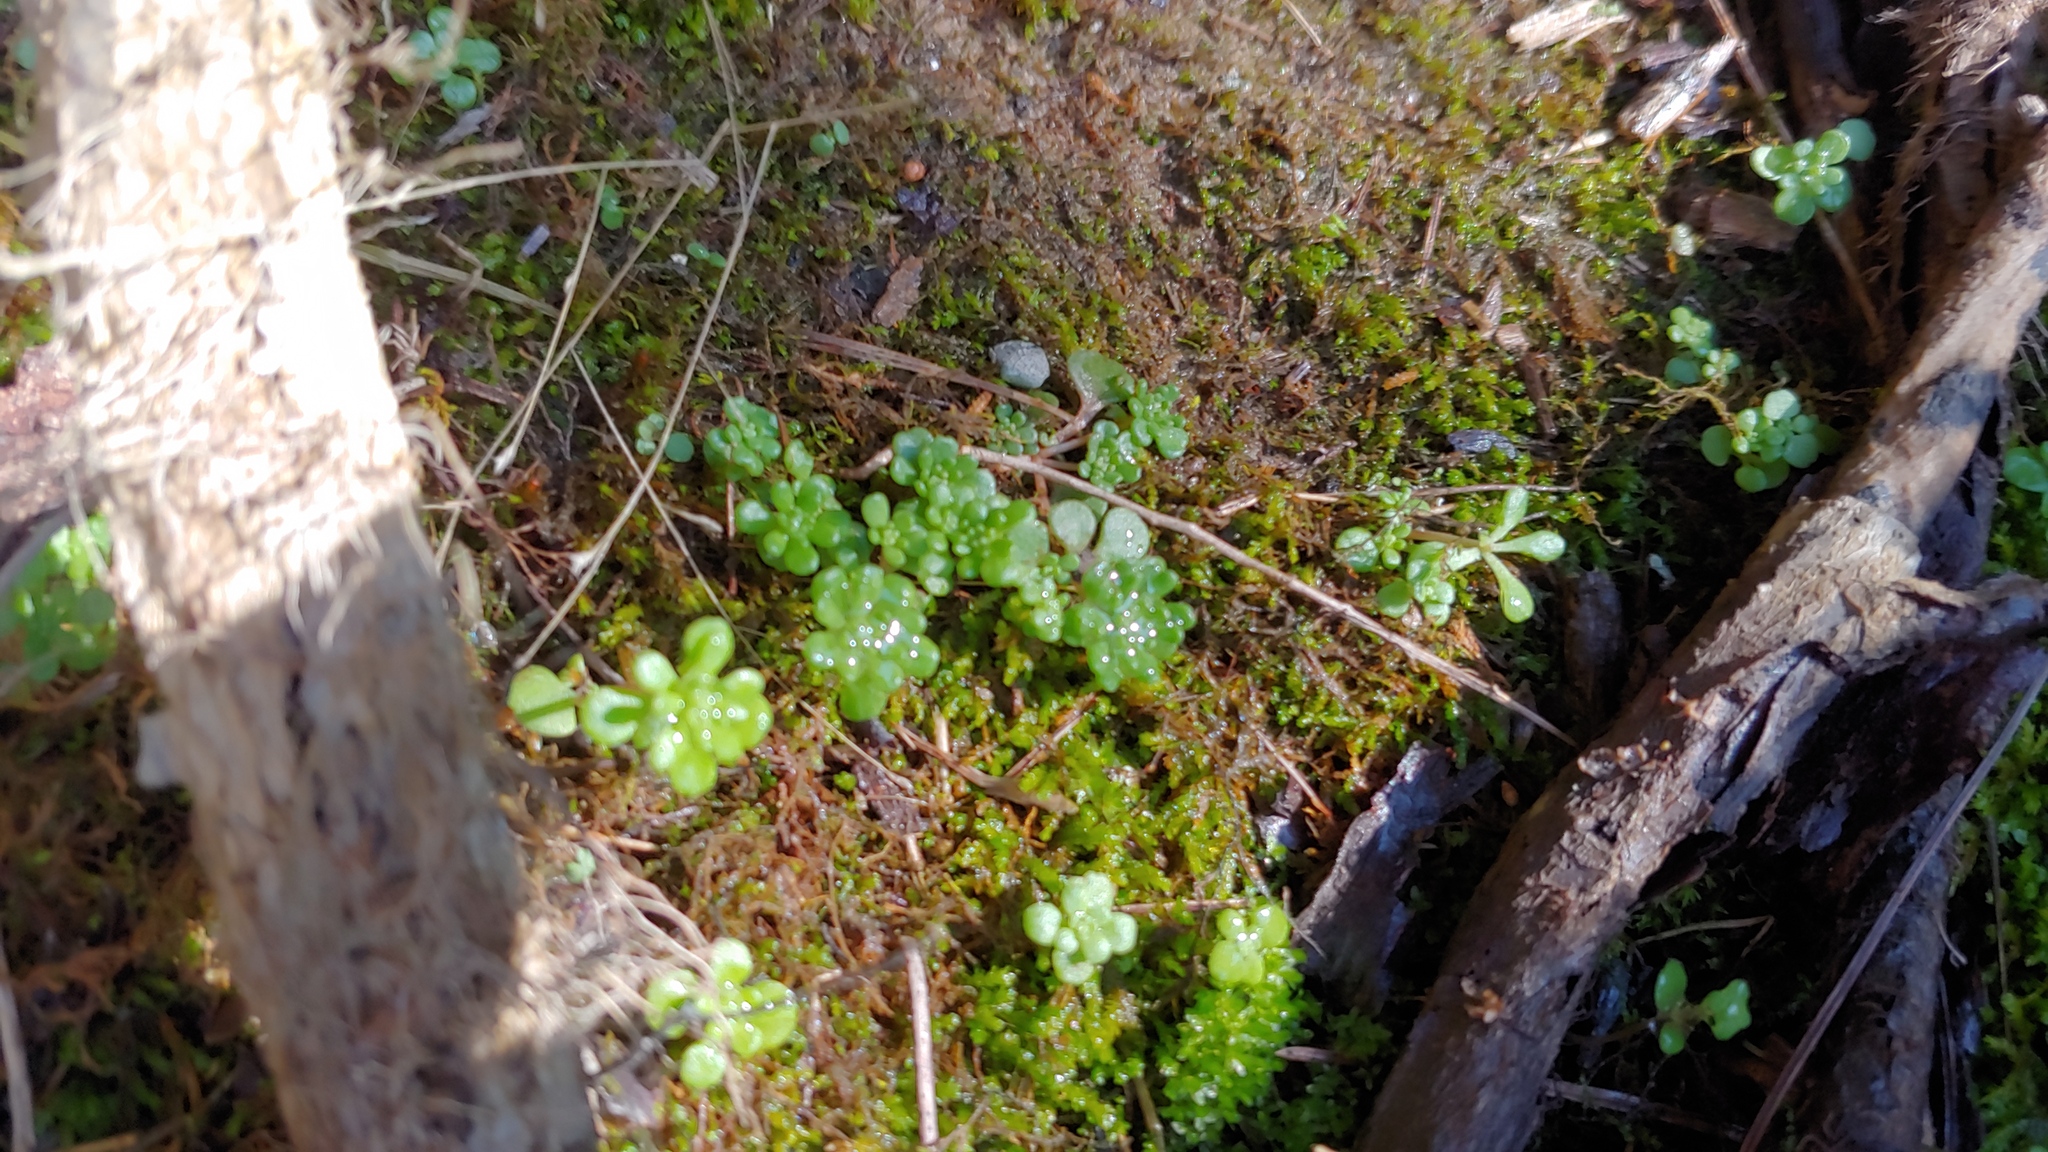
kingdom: Plantae
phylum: Tracheophyta
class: Magnoliopsida
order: Saxifragales
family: Crassulaceae
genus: Sedum
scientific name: Sedum pulchellum
